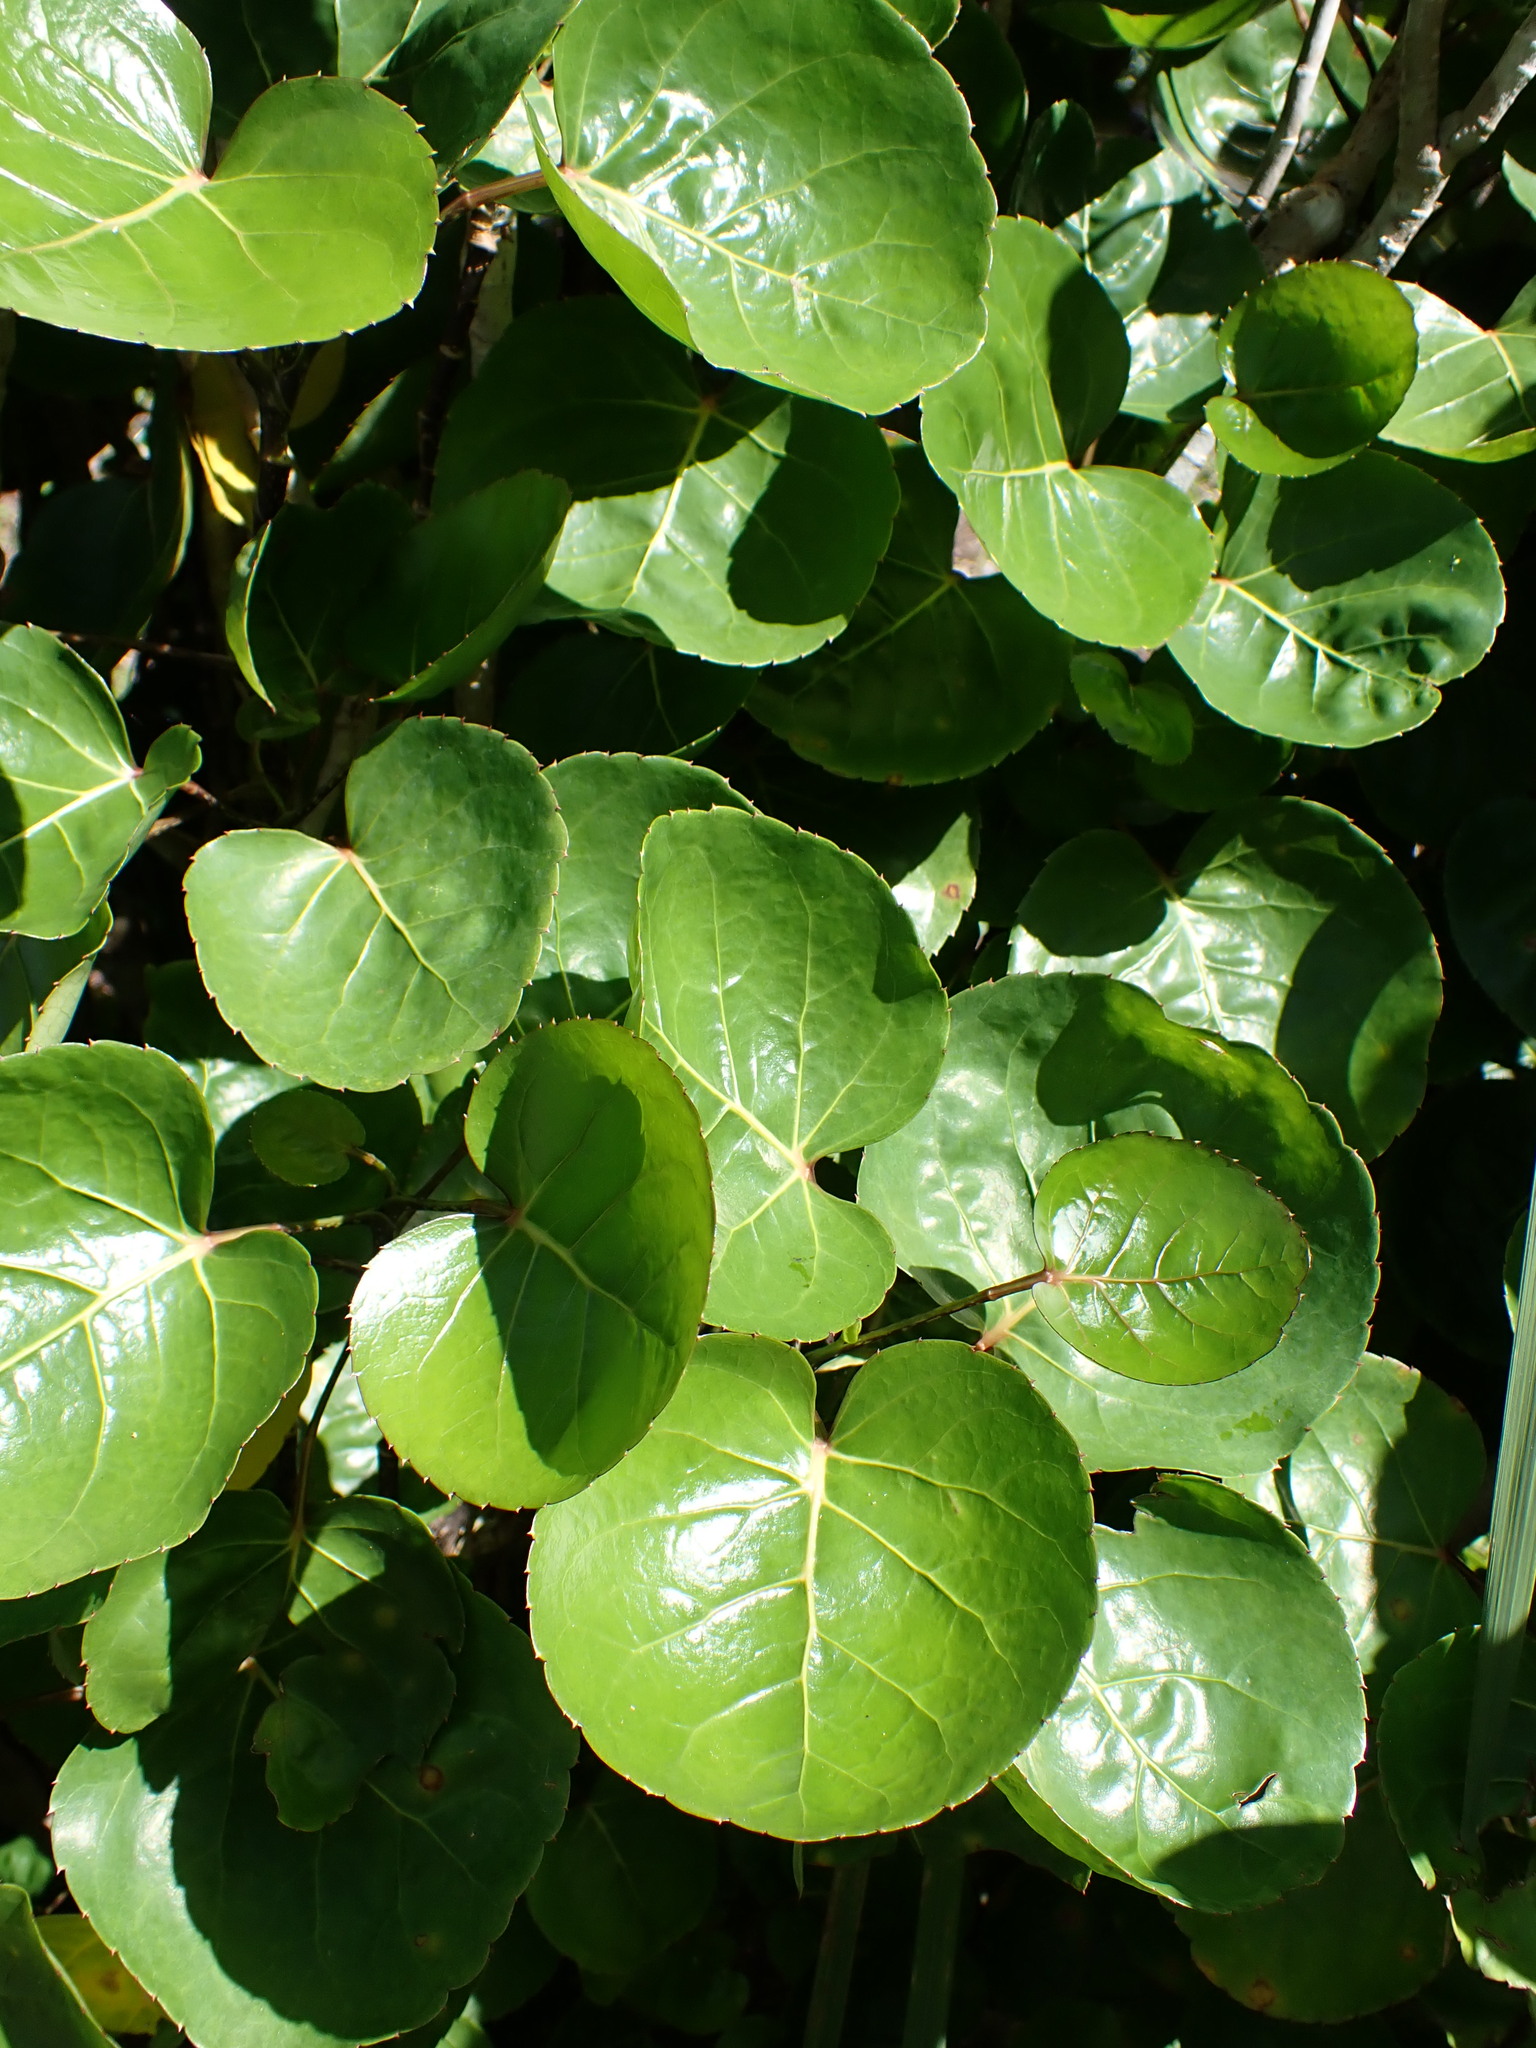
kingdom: Plantae
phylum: Tracheophyta
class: Magnoliopsida
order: Apiales
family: Araliaceae
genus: Polyscias
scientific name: Polyscias scutellaria
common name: Dinnerplate-aralia
